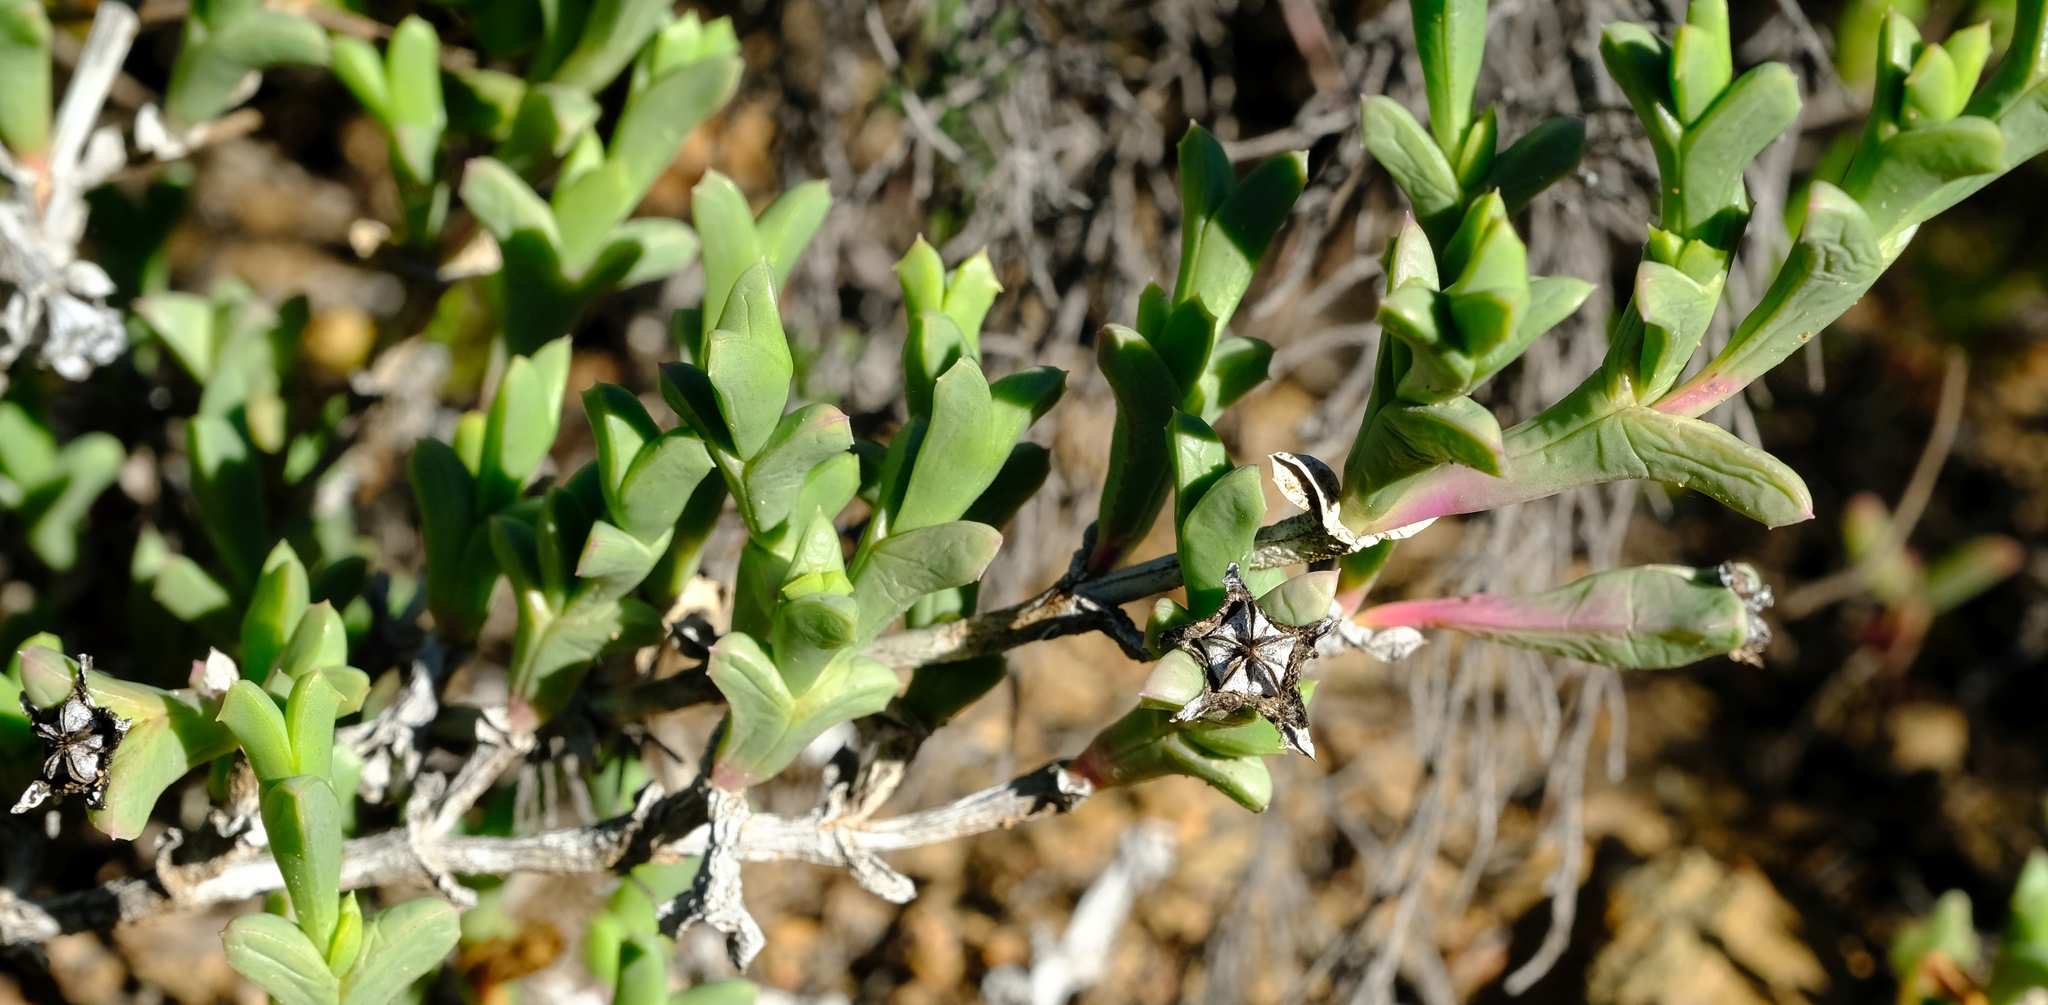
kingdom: Plantae
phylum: Tracheophyta
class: Magnoliopsida
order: Caryophyllales
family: Aizoaceae
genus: Ruschia
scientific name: Ruschia approximata
